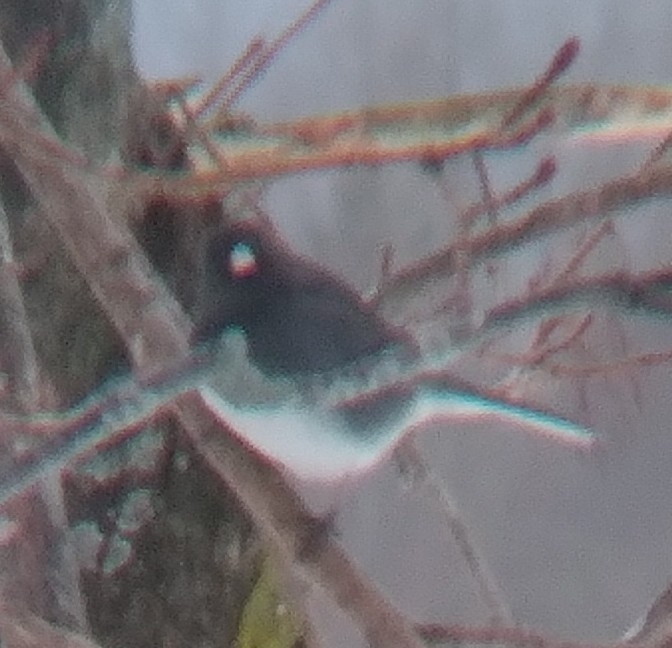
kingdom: Animalia
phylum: Chordata
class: Aves
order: Passeriformes
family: Passerellidae
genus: Junco
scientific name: Junco hyemalis
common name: Dark-eyed junco
